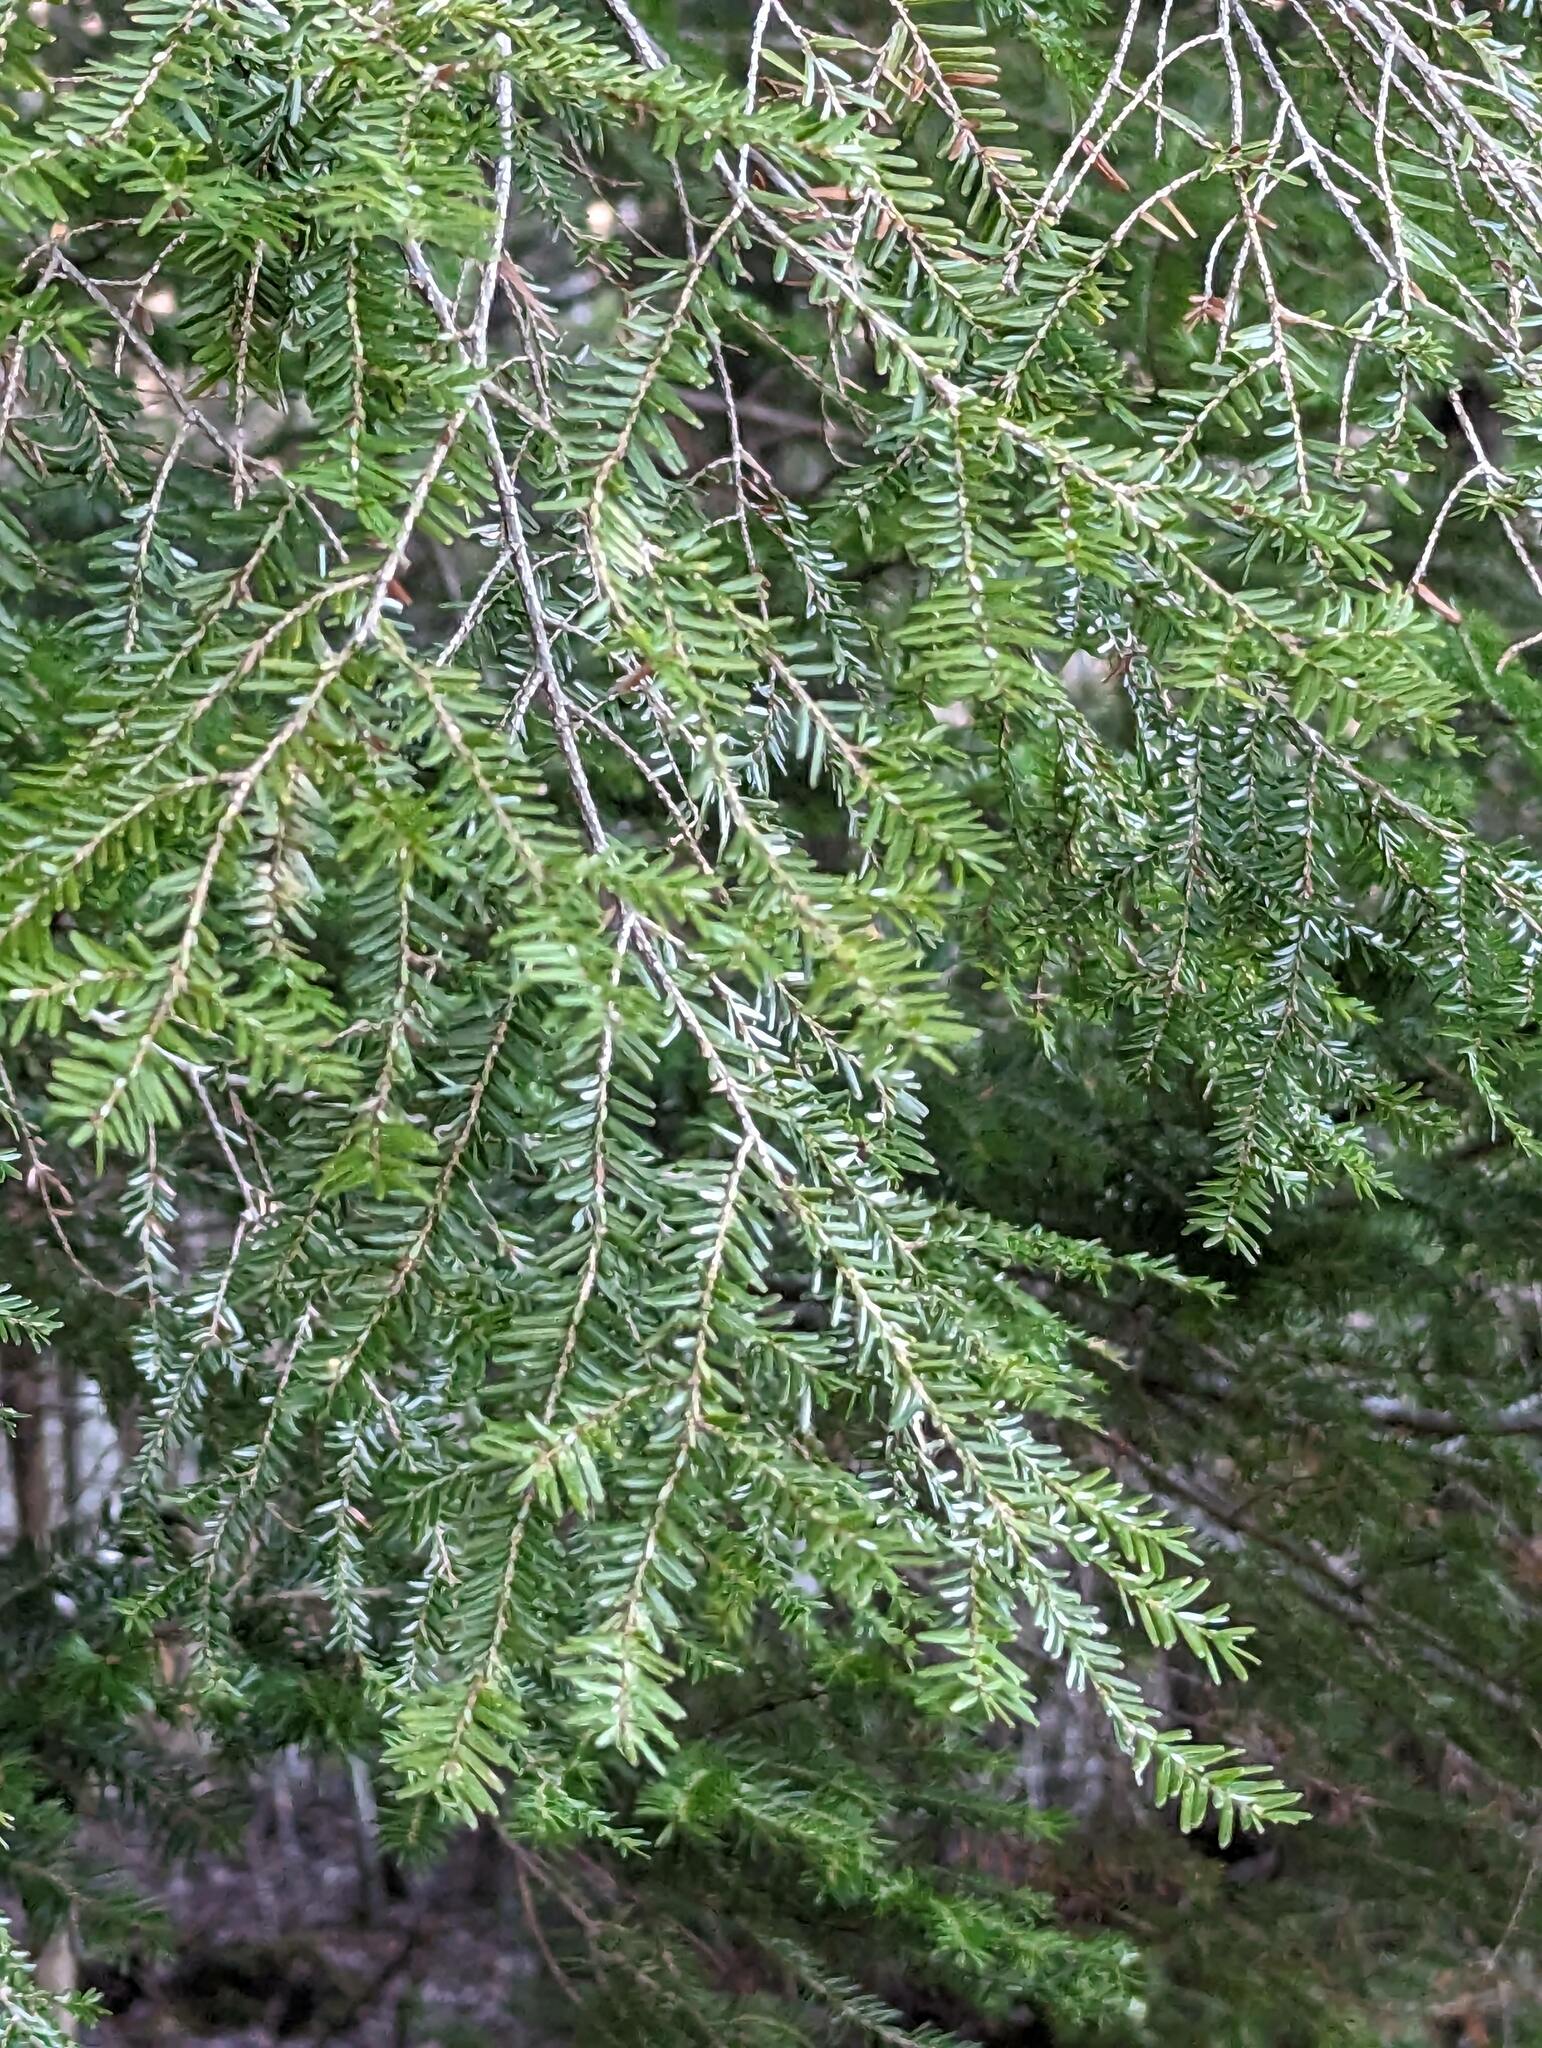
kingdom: Plantae
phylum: Tracheophyta
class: Pinopsida
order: Pinales
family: Pinaceae
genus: Tsuga
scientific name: Tsuga canadensis
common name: Eastern hemlock
